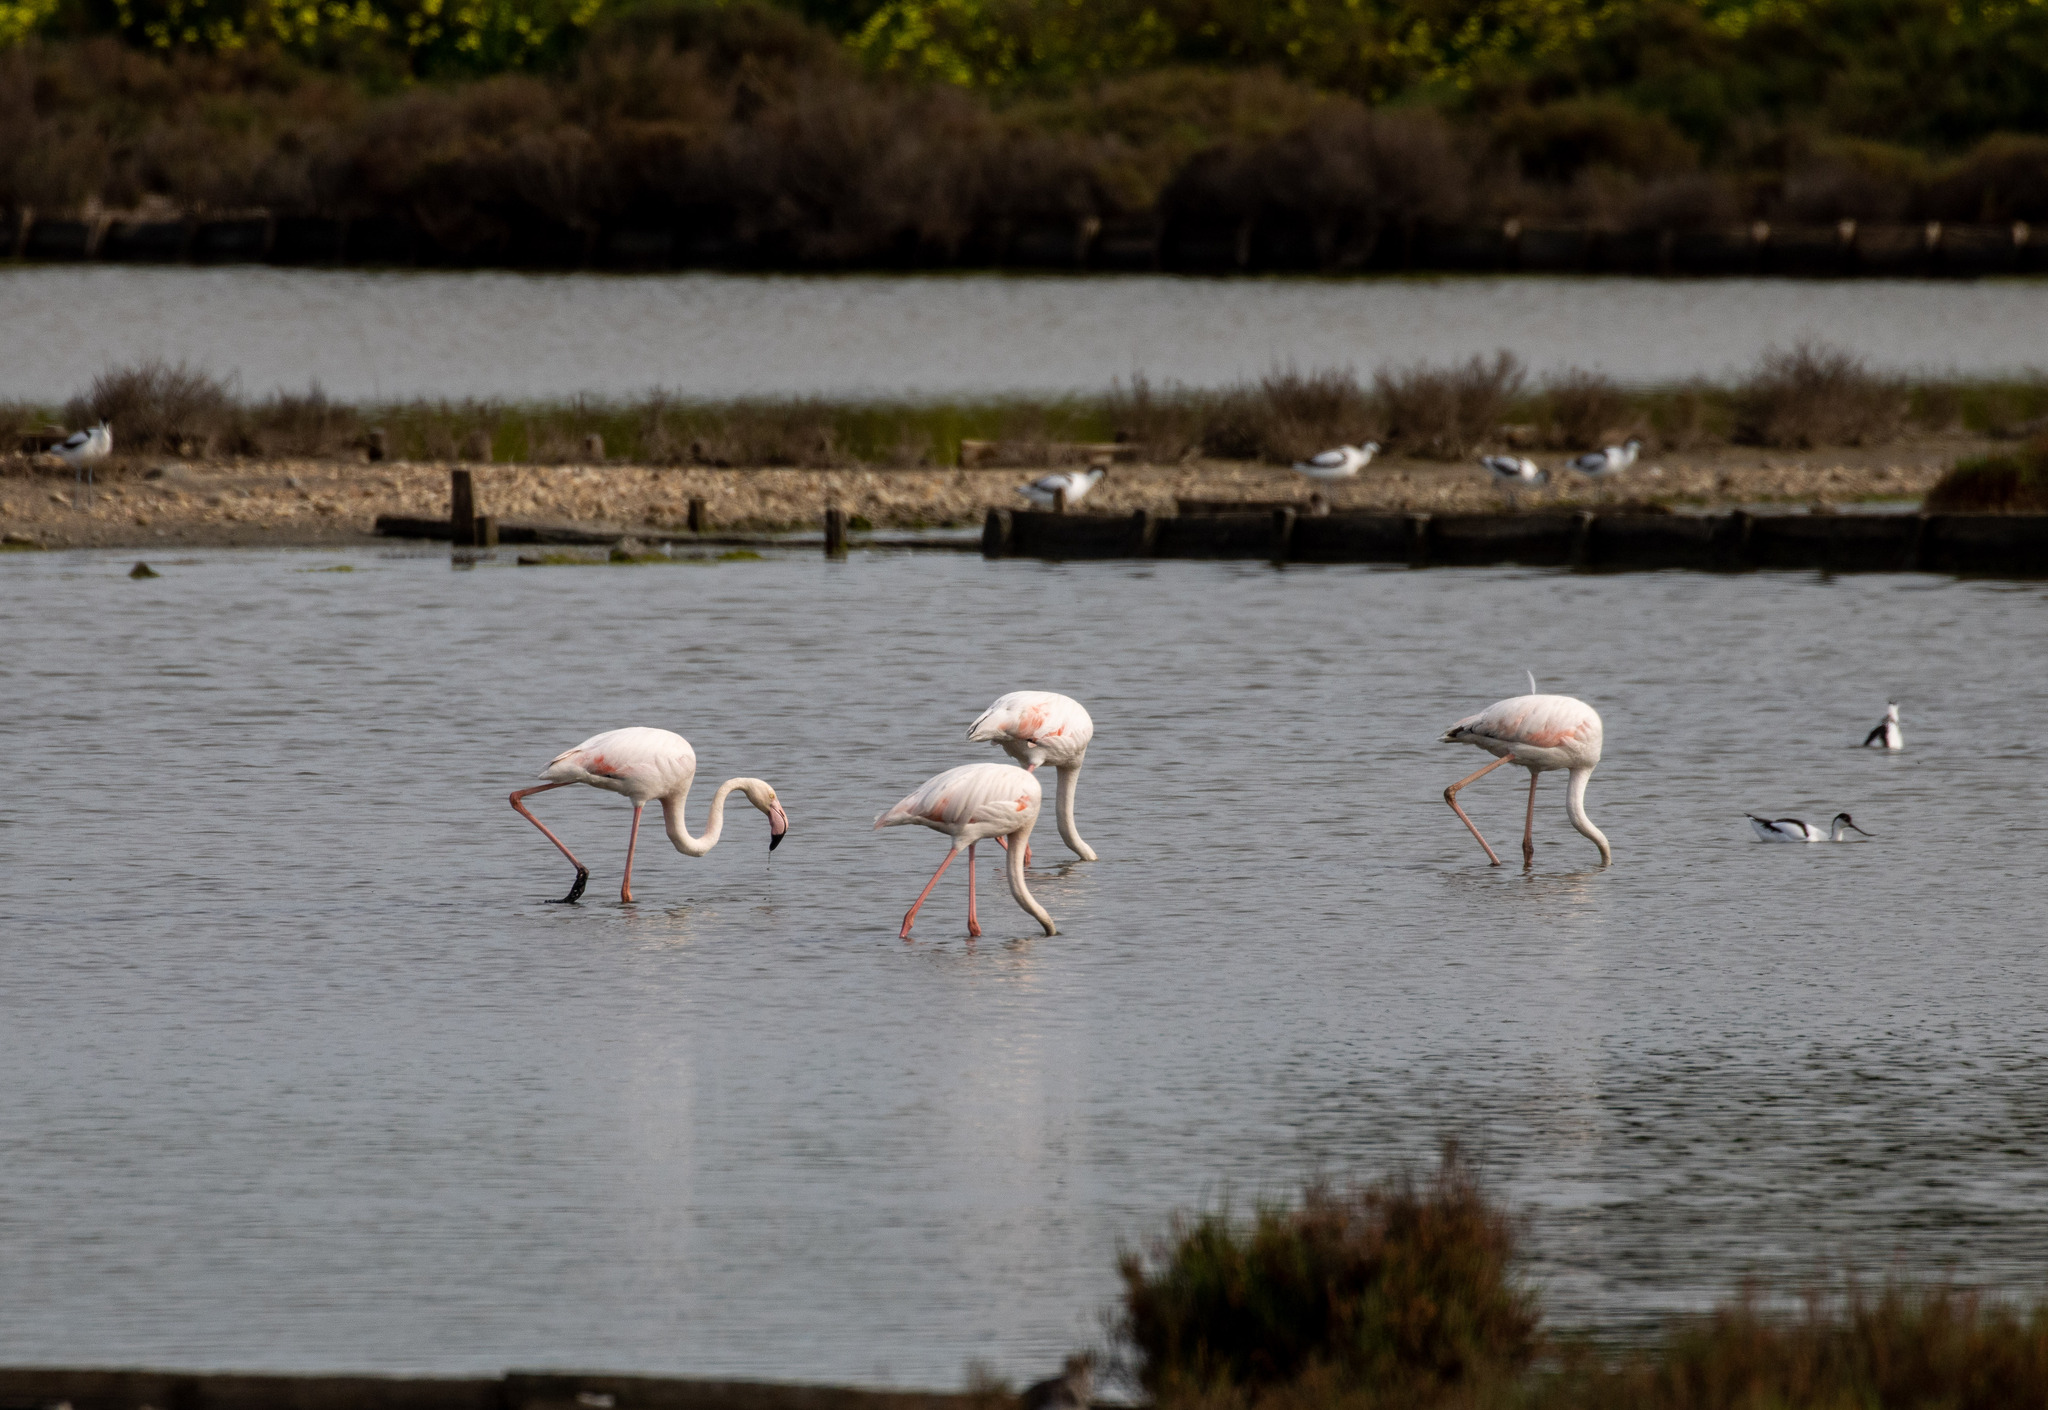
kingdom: Animalia
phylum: Chordata
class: Aves
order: Phoenicopteriformes
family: Phoenicopteridae
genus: Phoenicopterus
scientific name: Phoenicopterus roseus
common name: Greater flamingo
